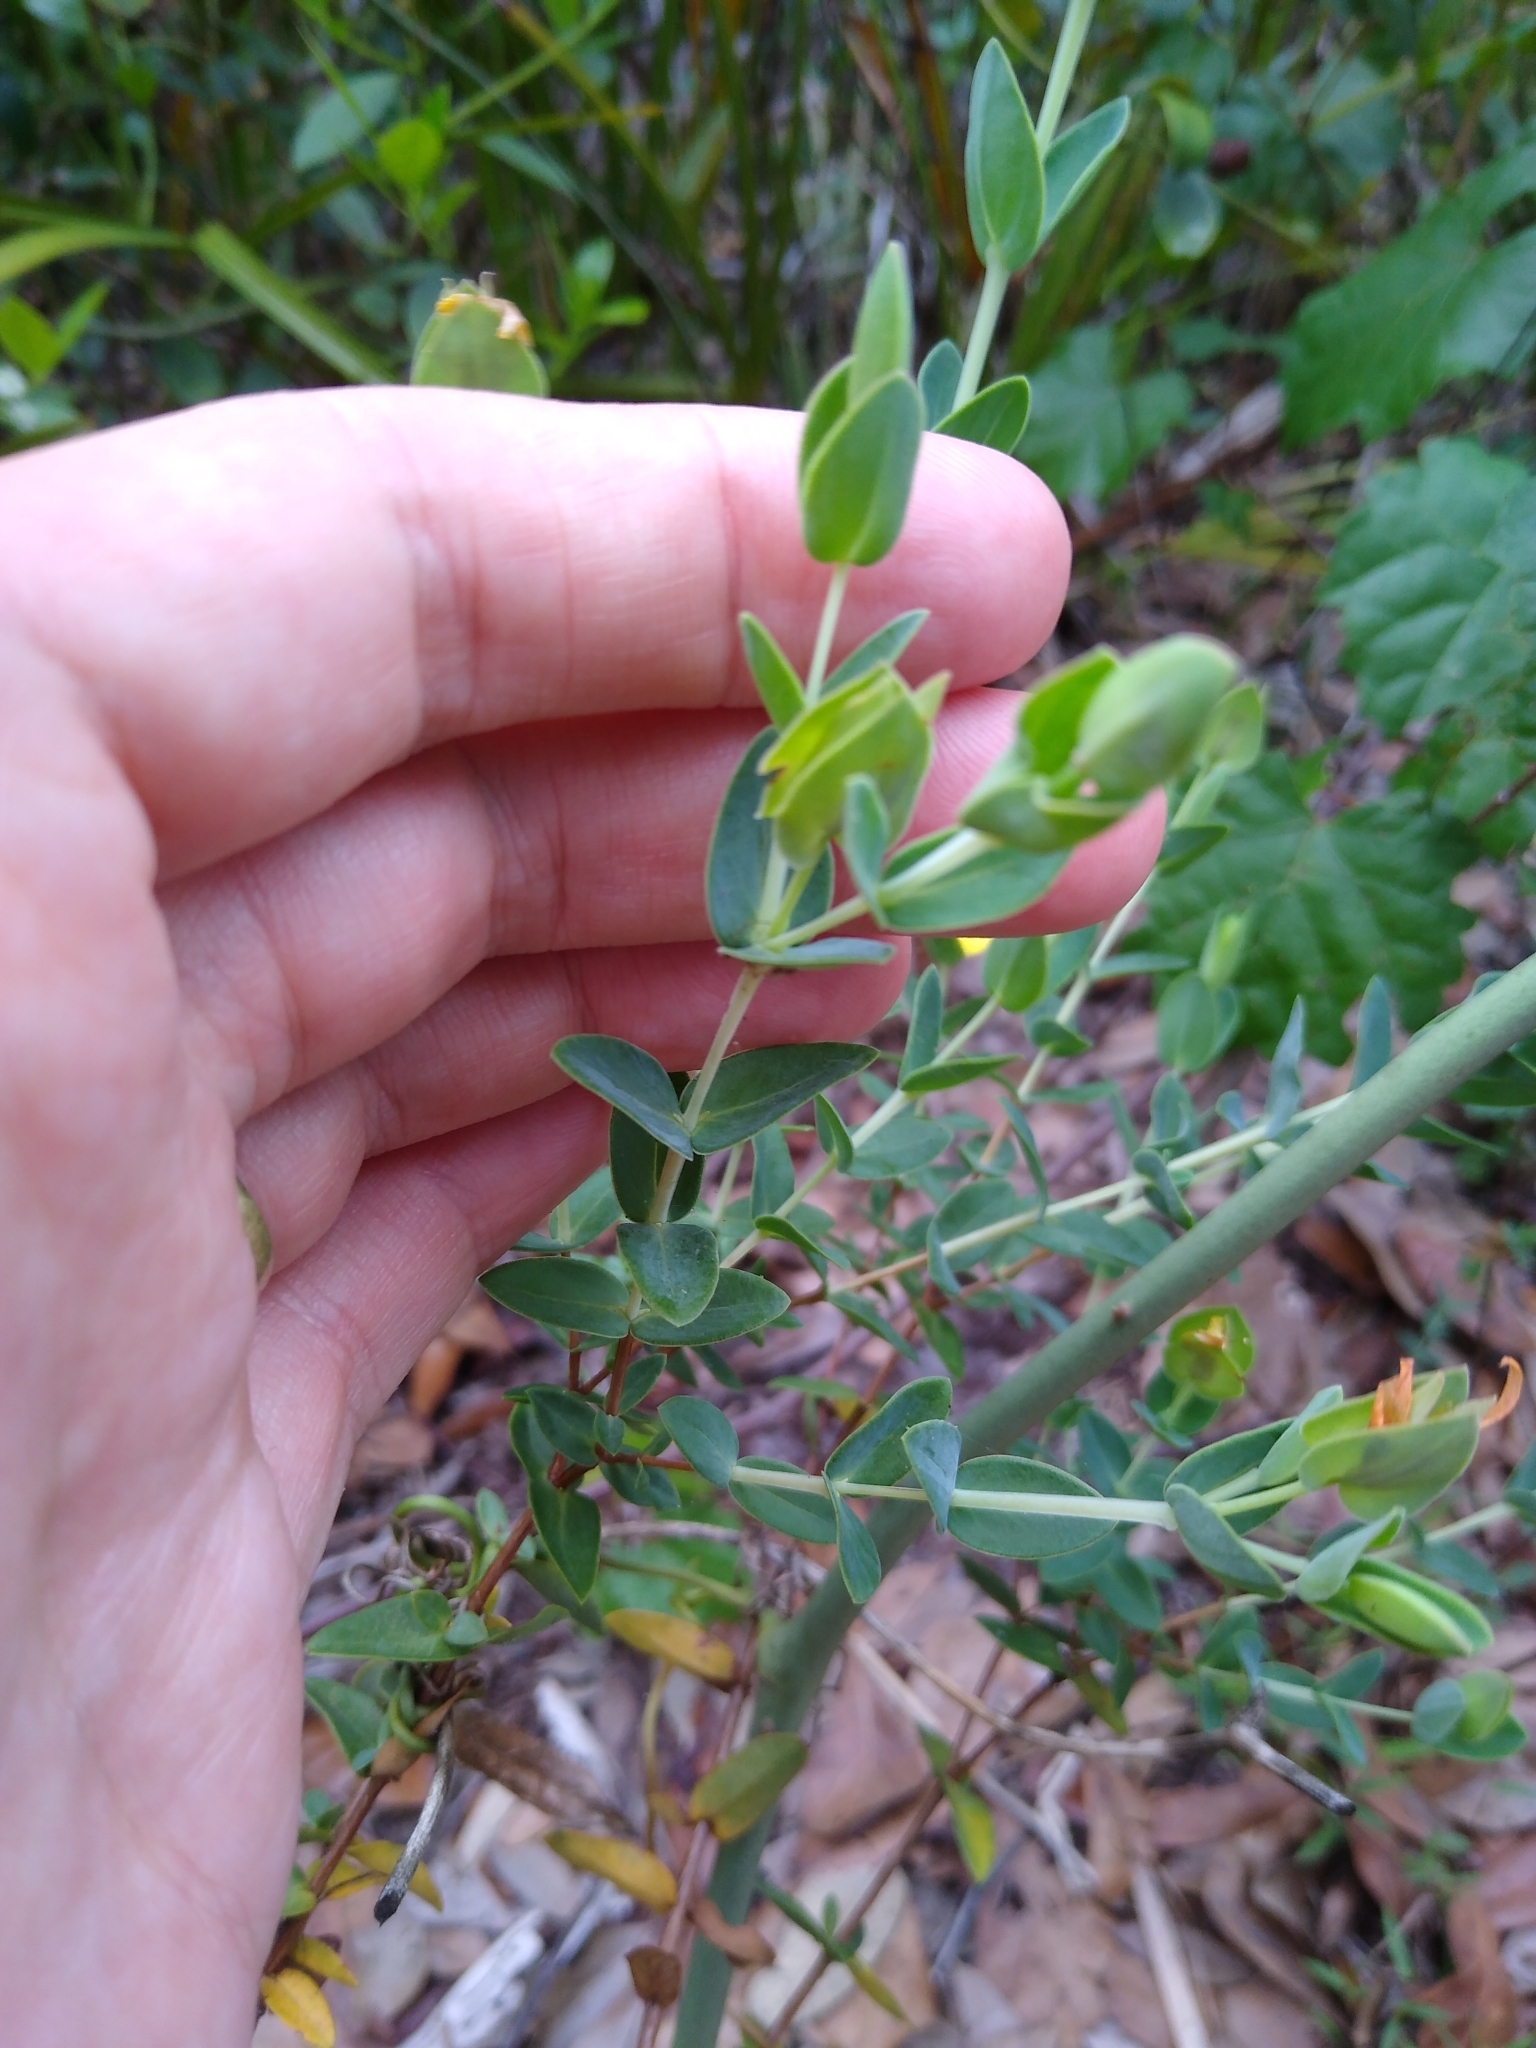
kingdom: Plantae
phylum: Tracheophyta
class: Magnoliopsida
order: Malpighiales
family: Hypericaceae
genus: Hypericum
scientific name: Hypericum tetrapetalum
